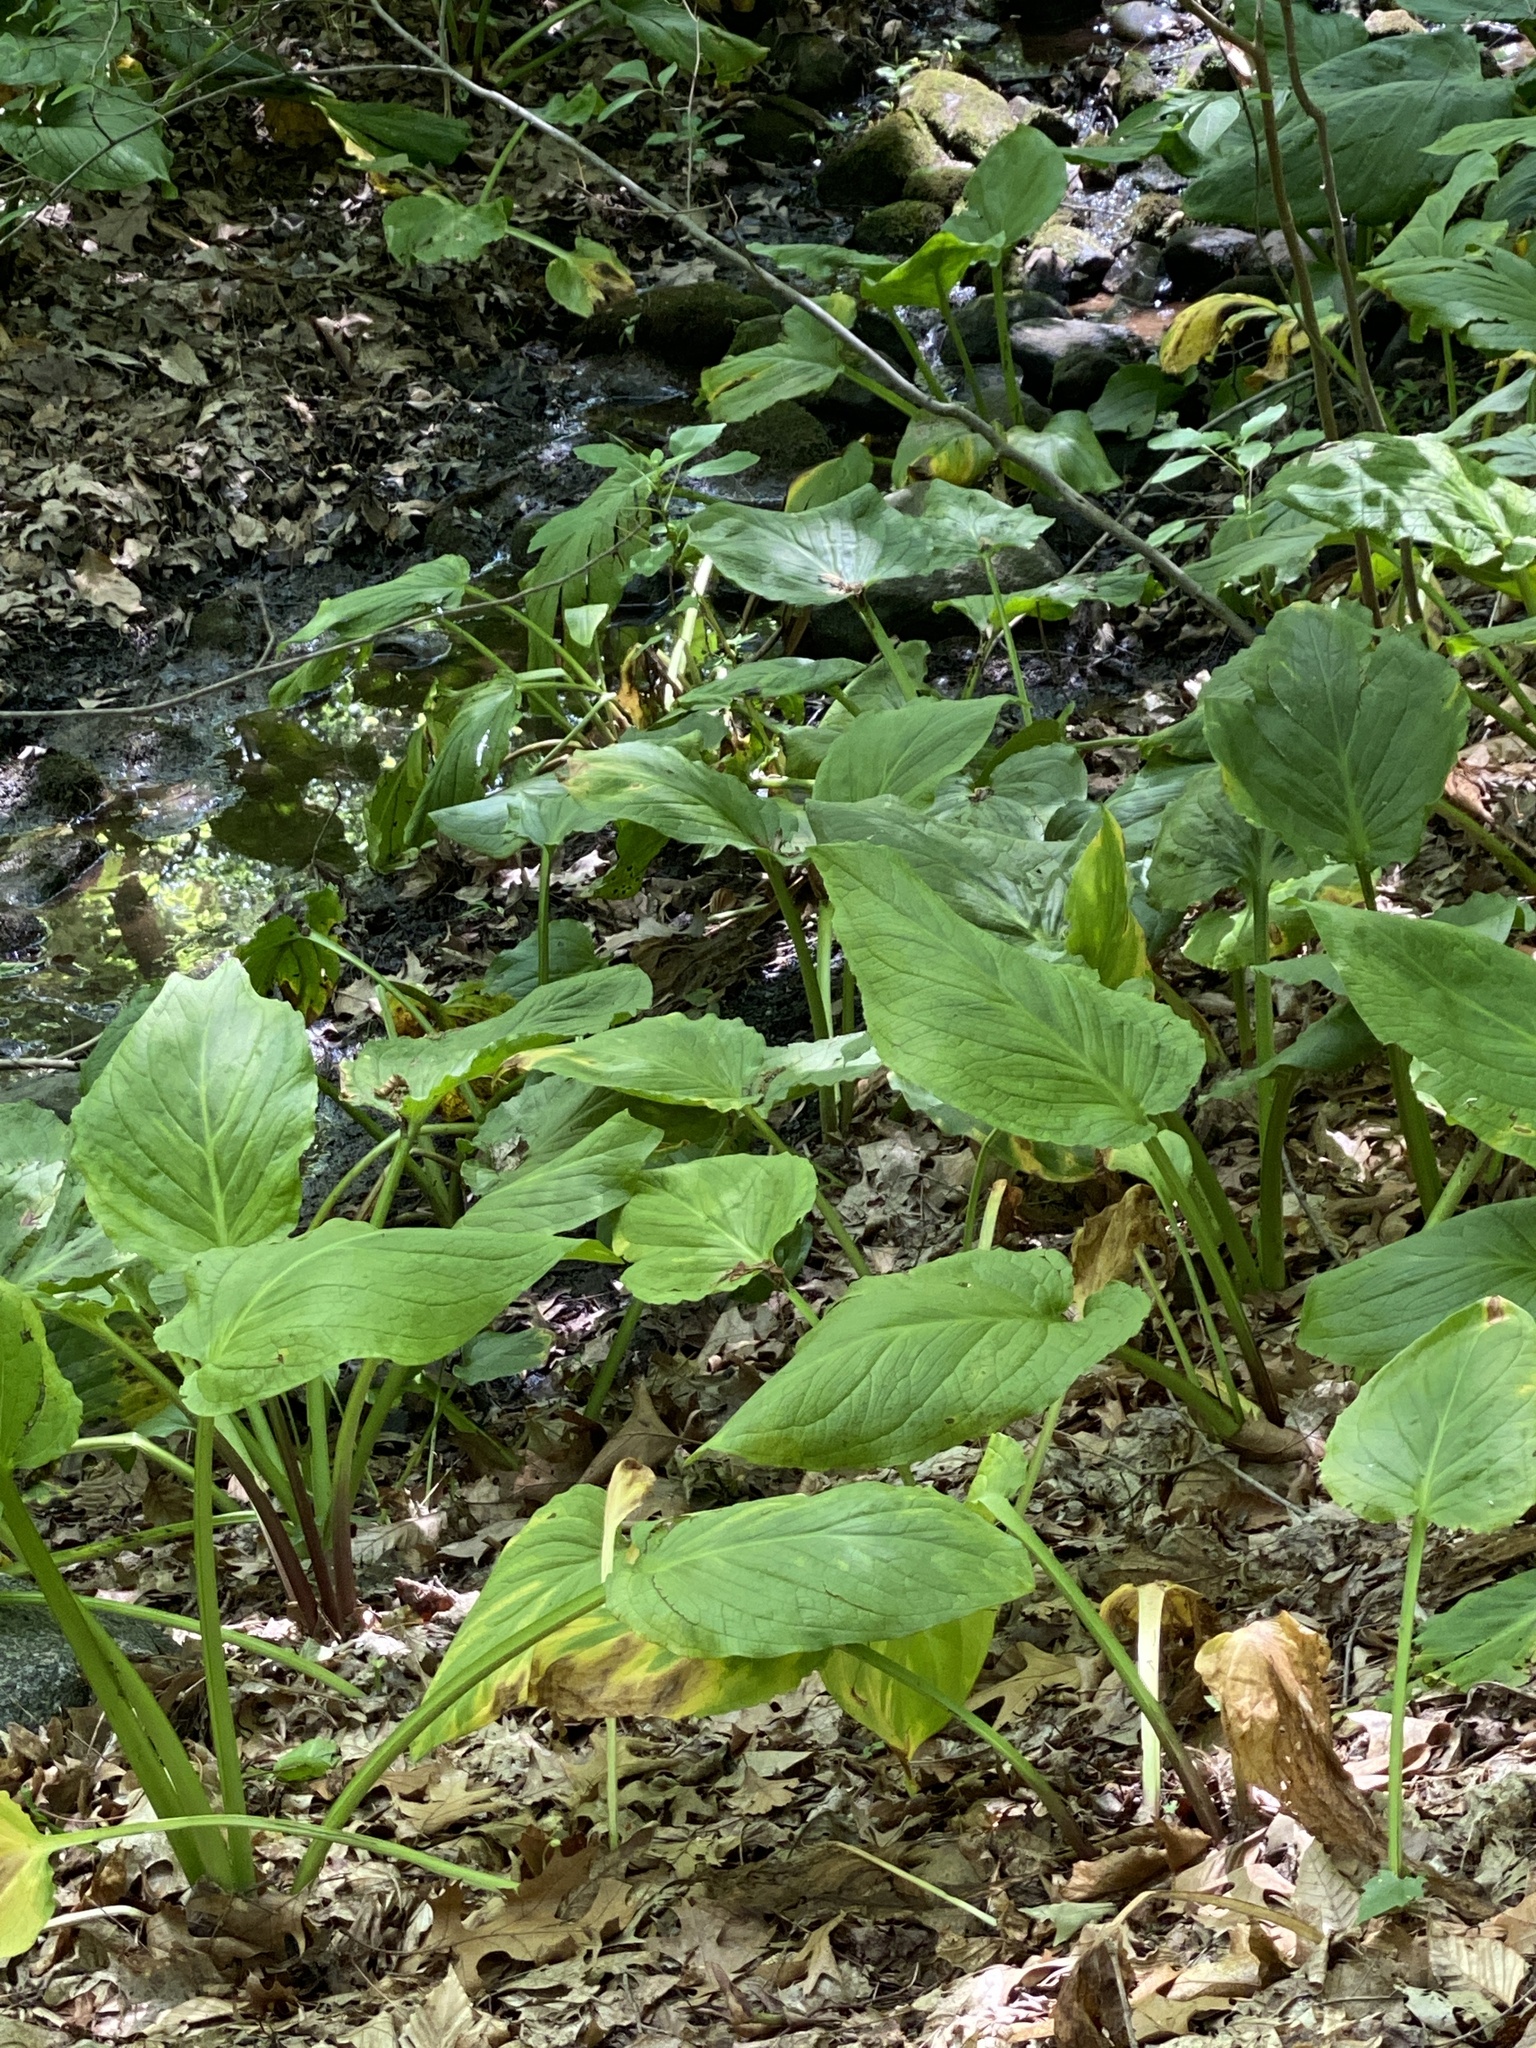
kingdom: Plantae
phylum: Tracheophyta
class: Liliopsida
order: Alismatales
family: Araceae
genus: Symplocarpus
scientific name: Symplocarpus foetidus
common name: Eastern skunk cabbage
